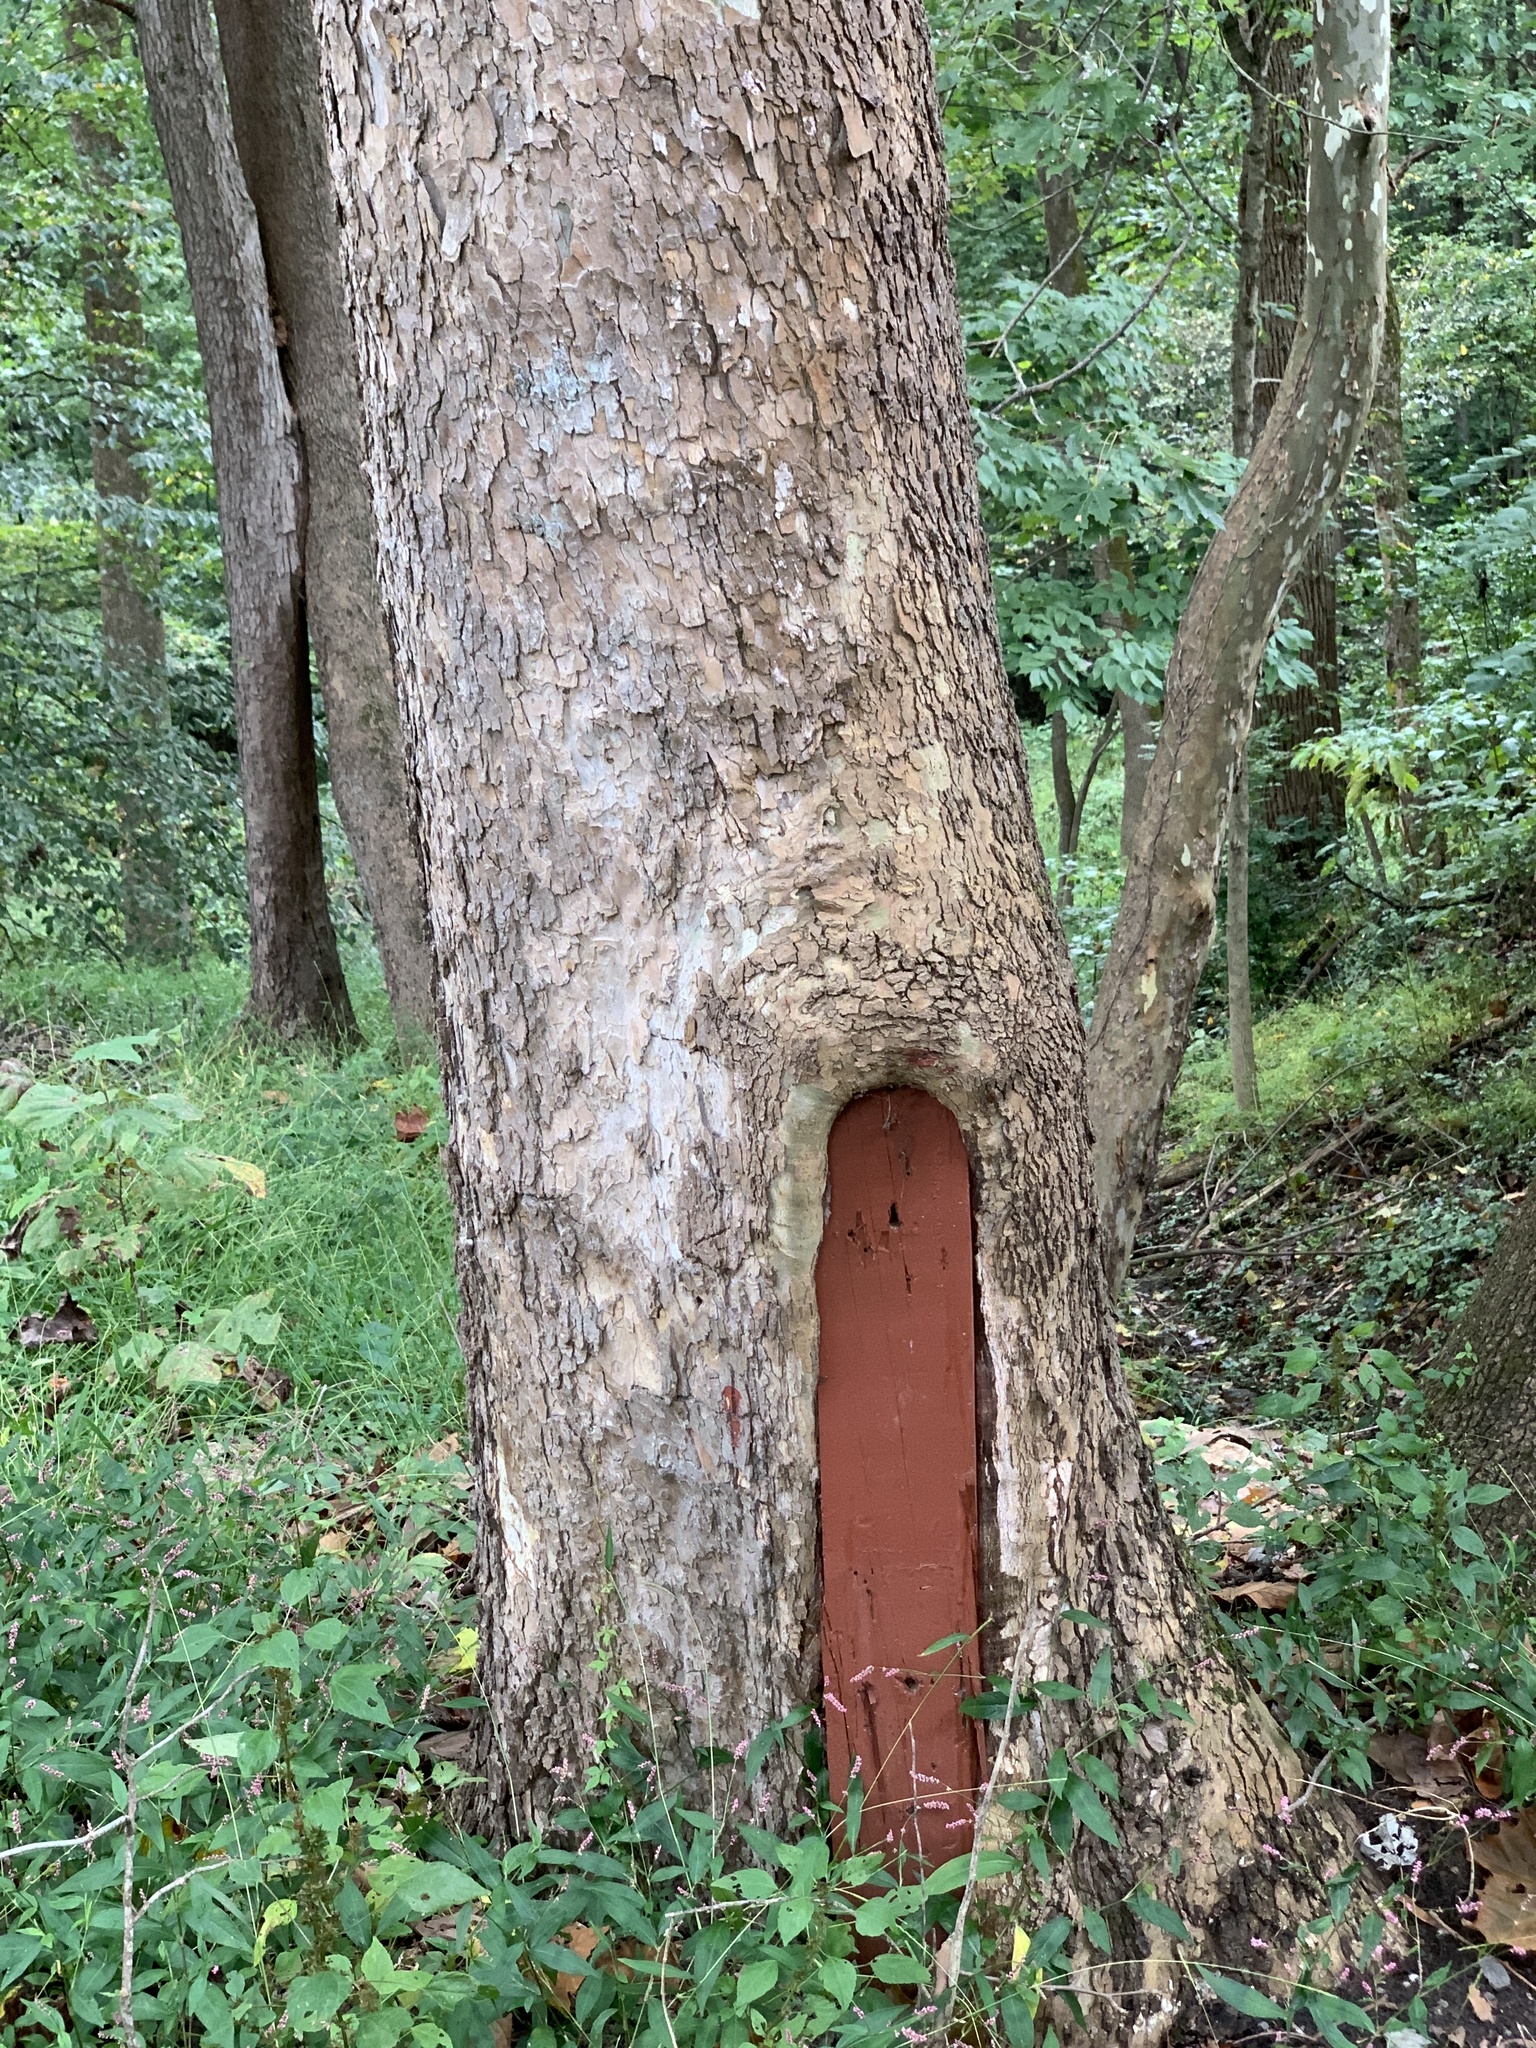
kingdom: Plantae
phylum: Tracheophyta
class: Magnoliopsida
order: Proteales
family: Platanaceae
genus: Platanus
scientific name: Platanus occidentalis
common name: American sycamore
